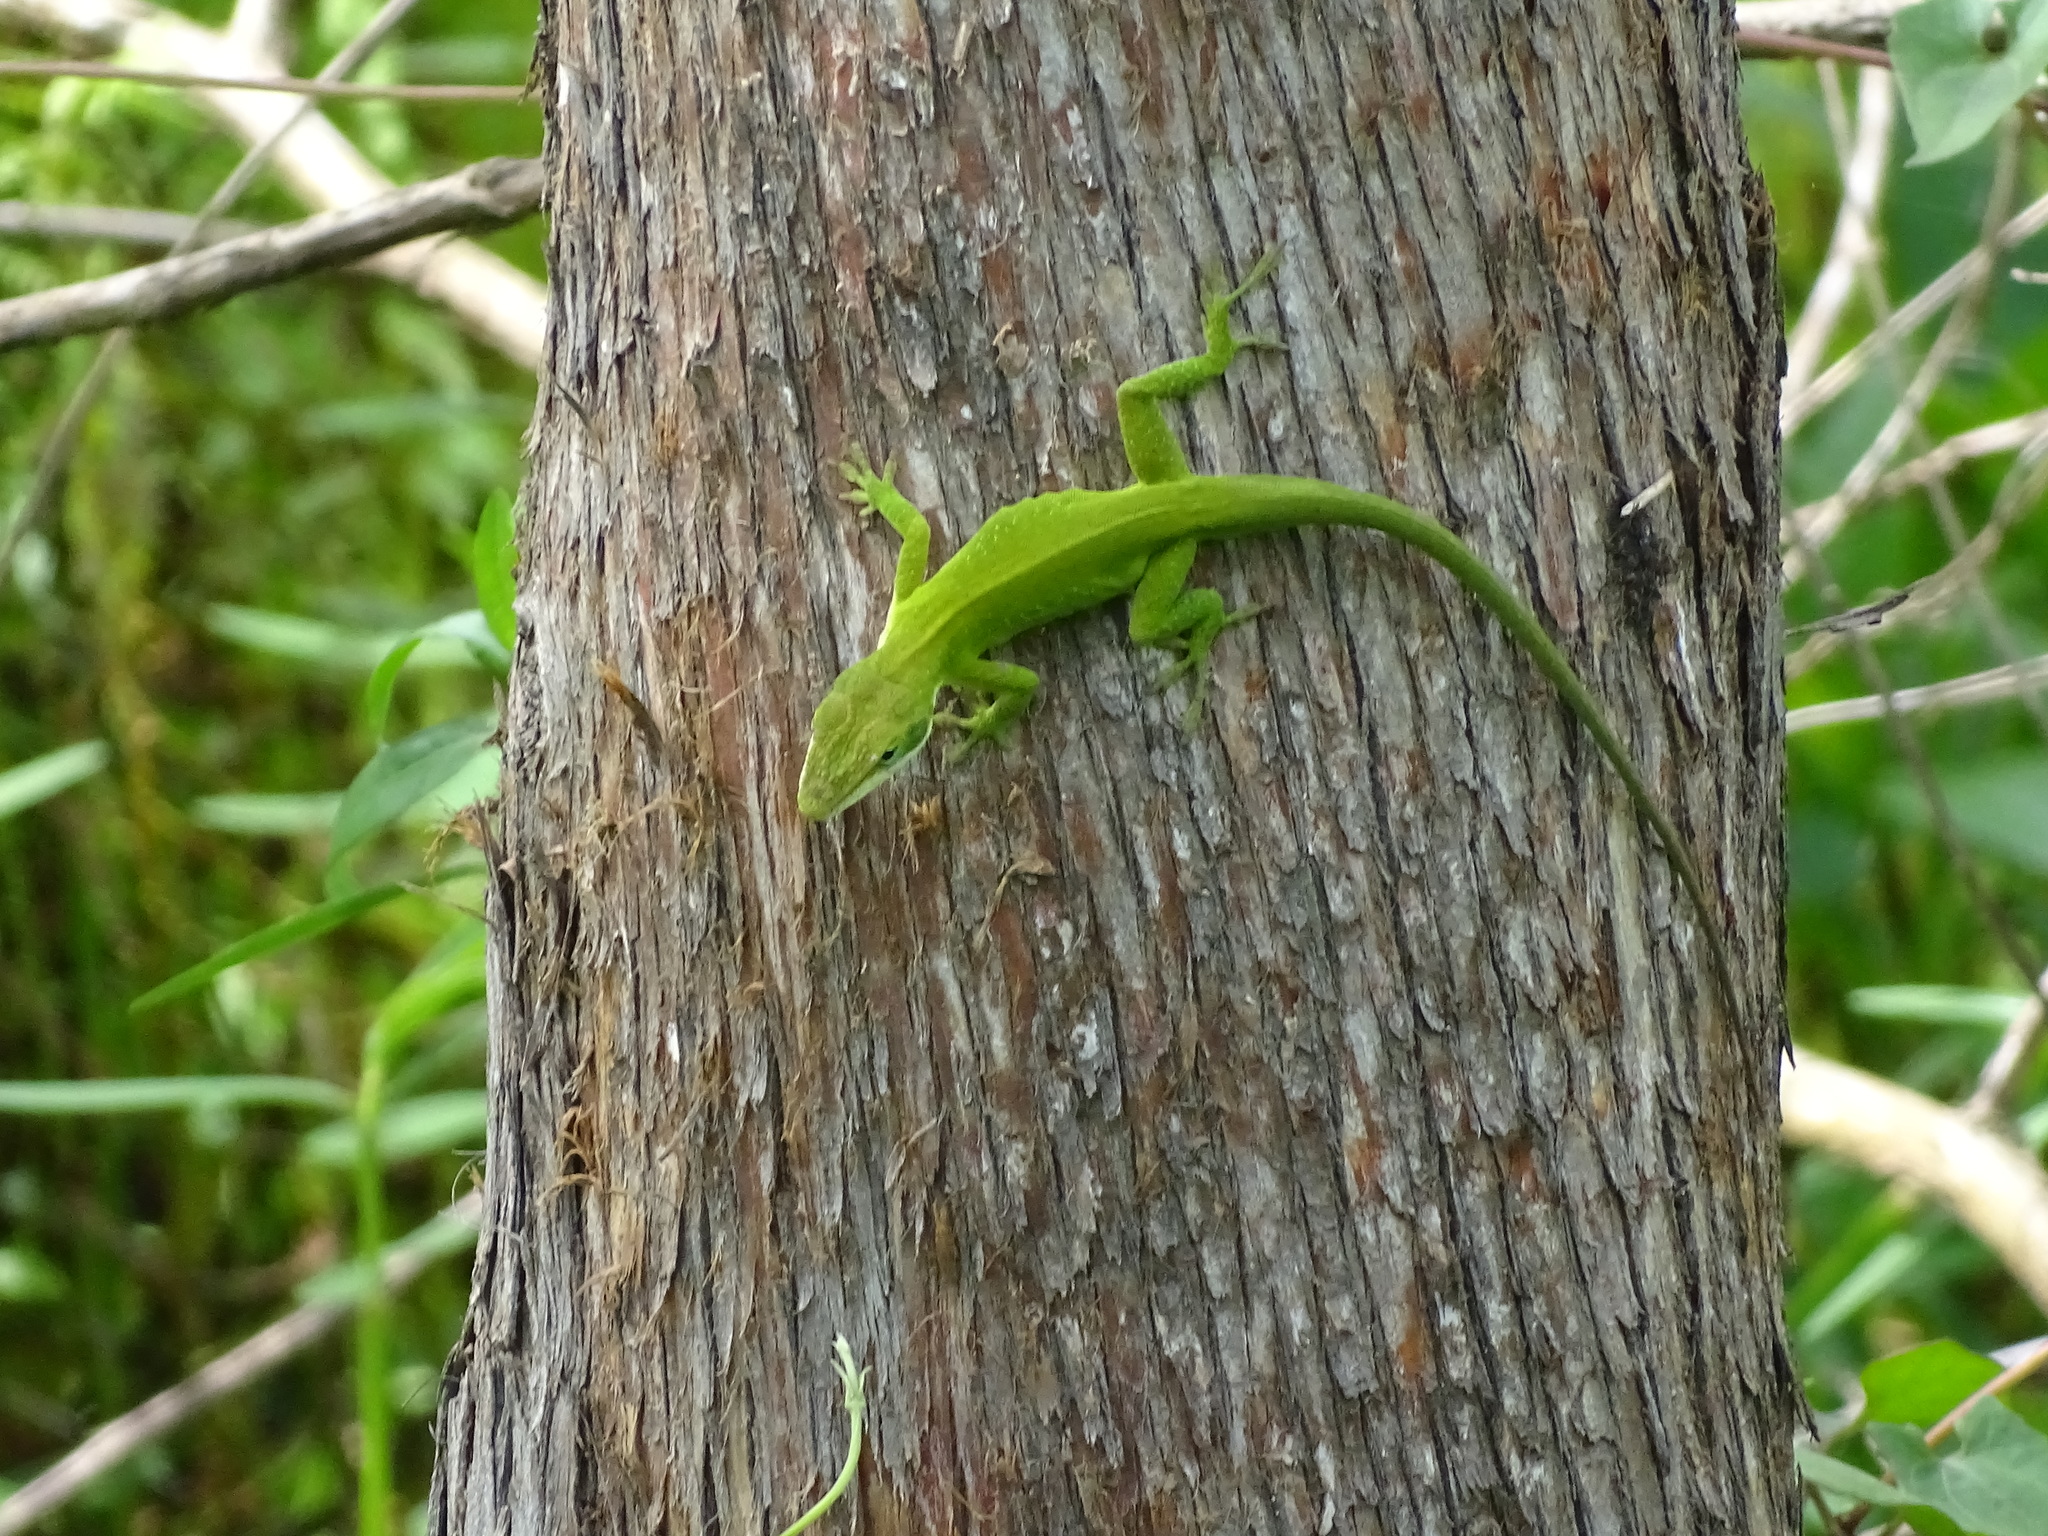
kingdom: Animalia
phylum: Chordata
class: Squamata
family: Dactyloidae
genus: Anolis
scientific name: Anolis carolinensis
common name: Green anole
